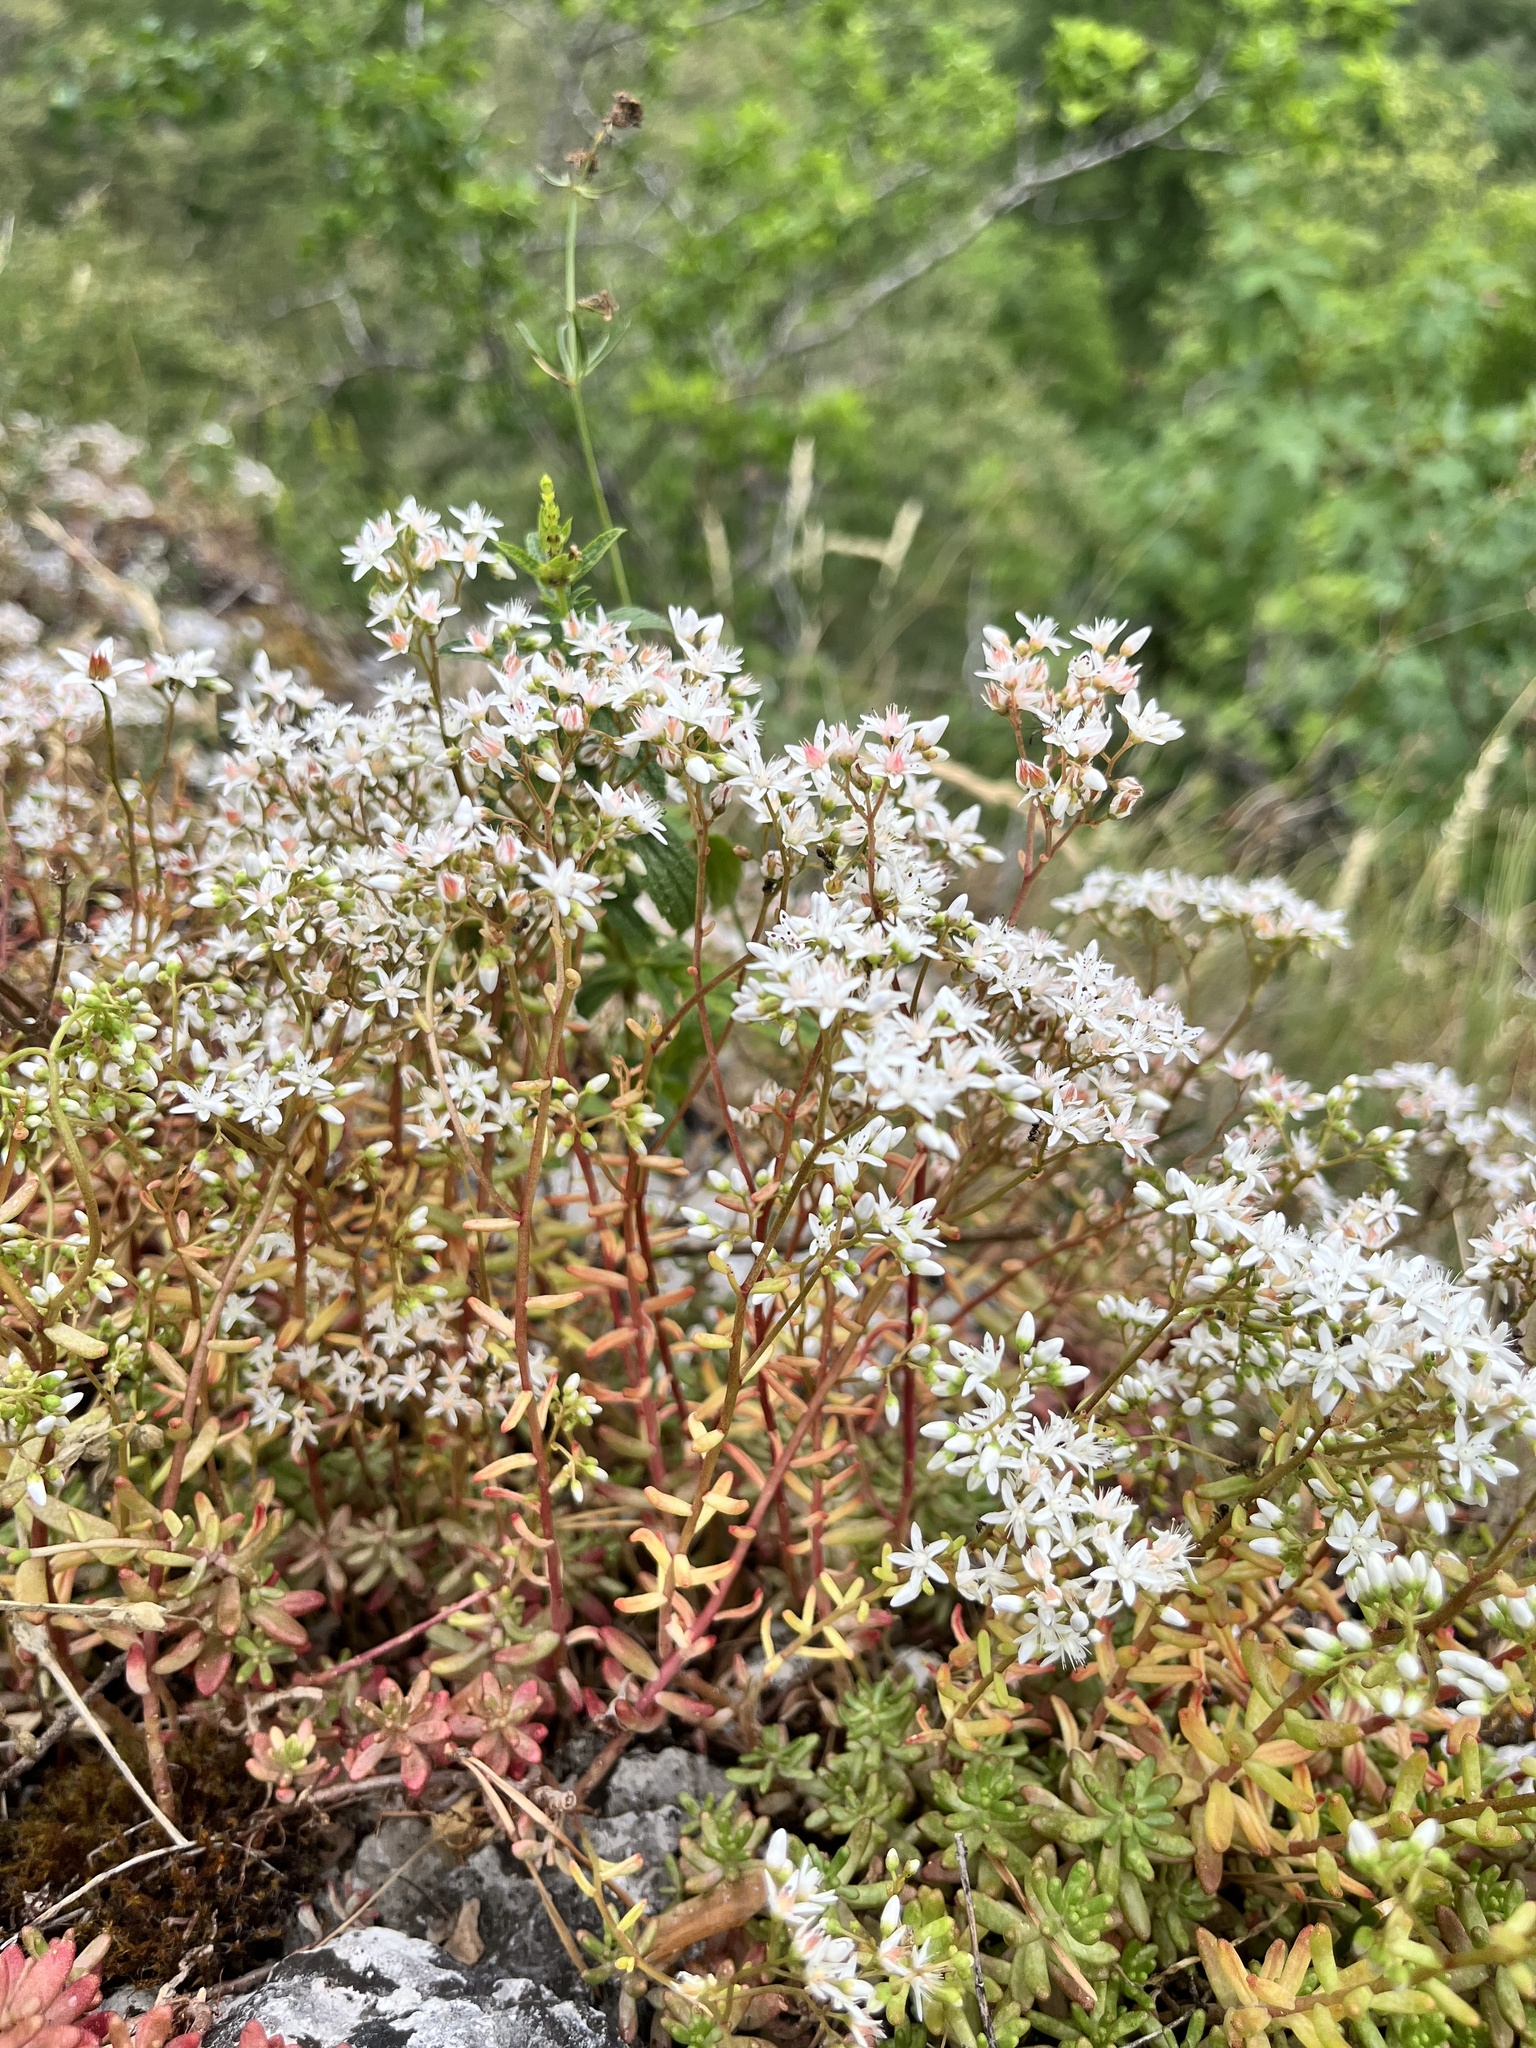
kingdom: Plantae
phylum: Tracheophyta
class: Magnoliopsida
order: Saxifragales
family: Crassulaceae
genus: Sedum
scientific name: Sedum album
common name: White stonecrop
